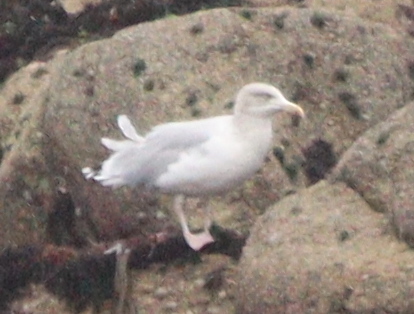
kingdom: Animalia
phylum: Chordata
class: Aves
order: Charadriiformes
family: Laridae
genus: Larus
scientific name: Larus argentatus
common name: Herring gull
